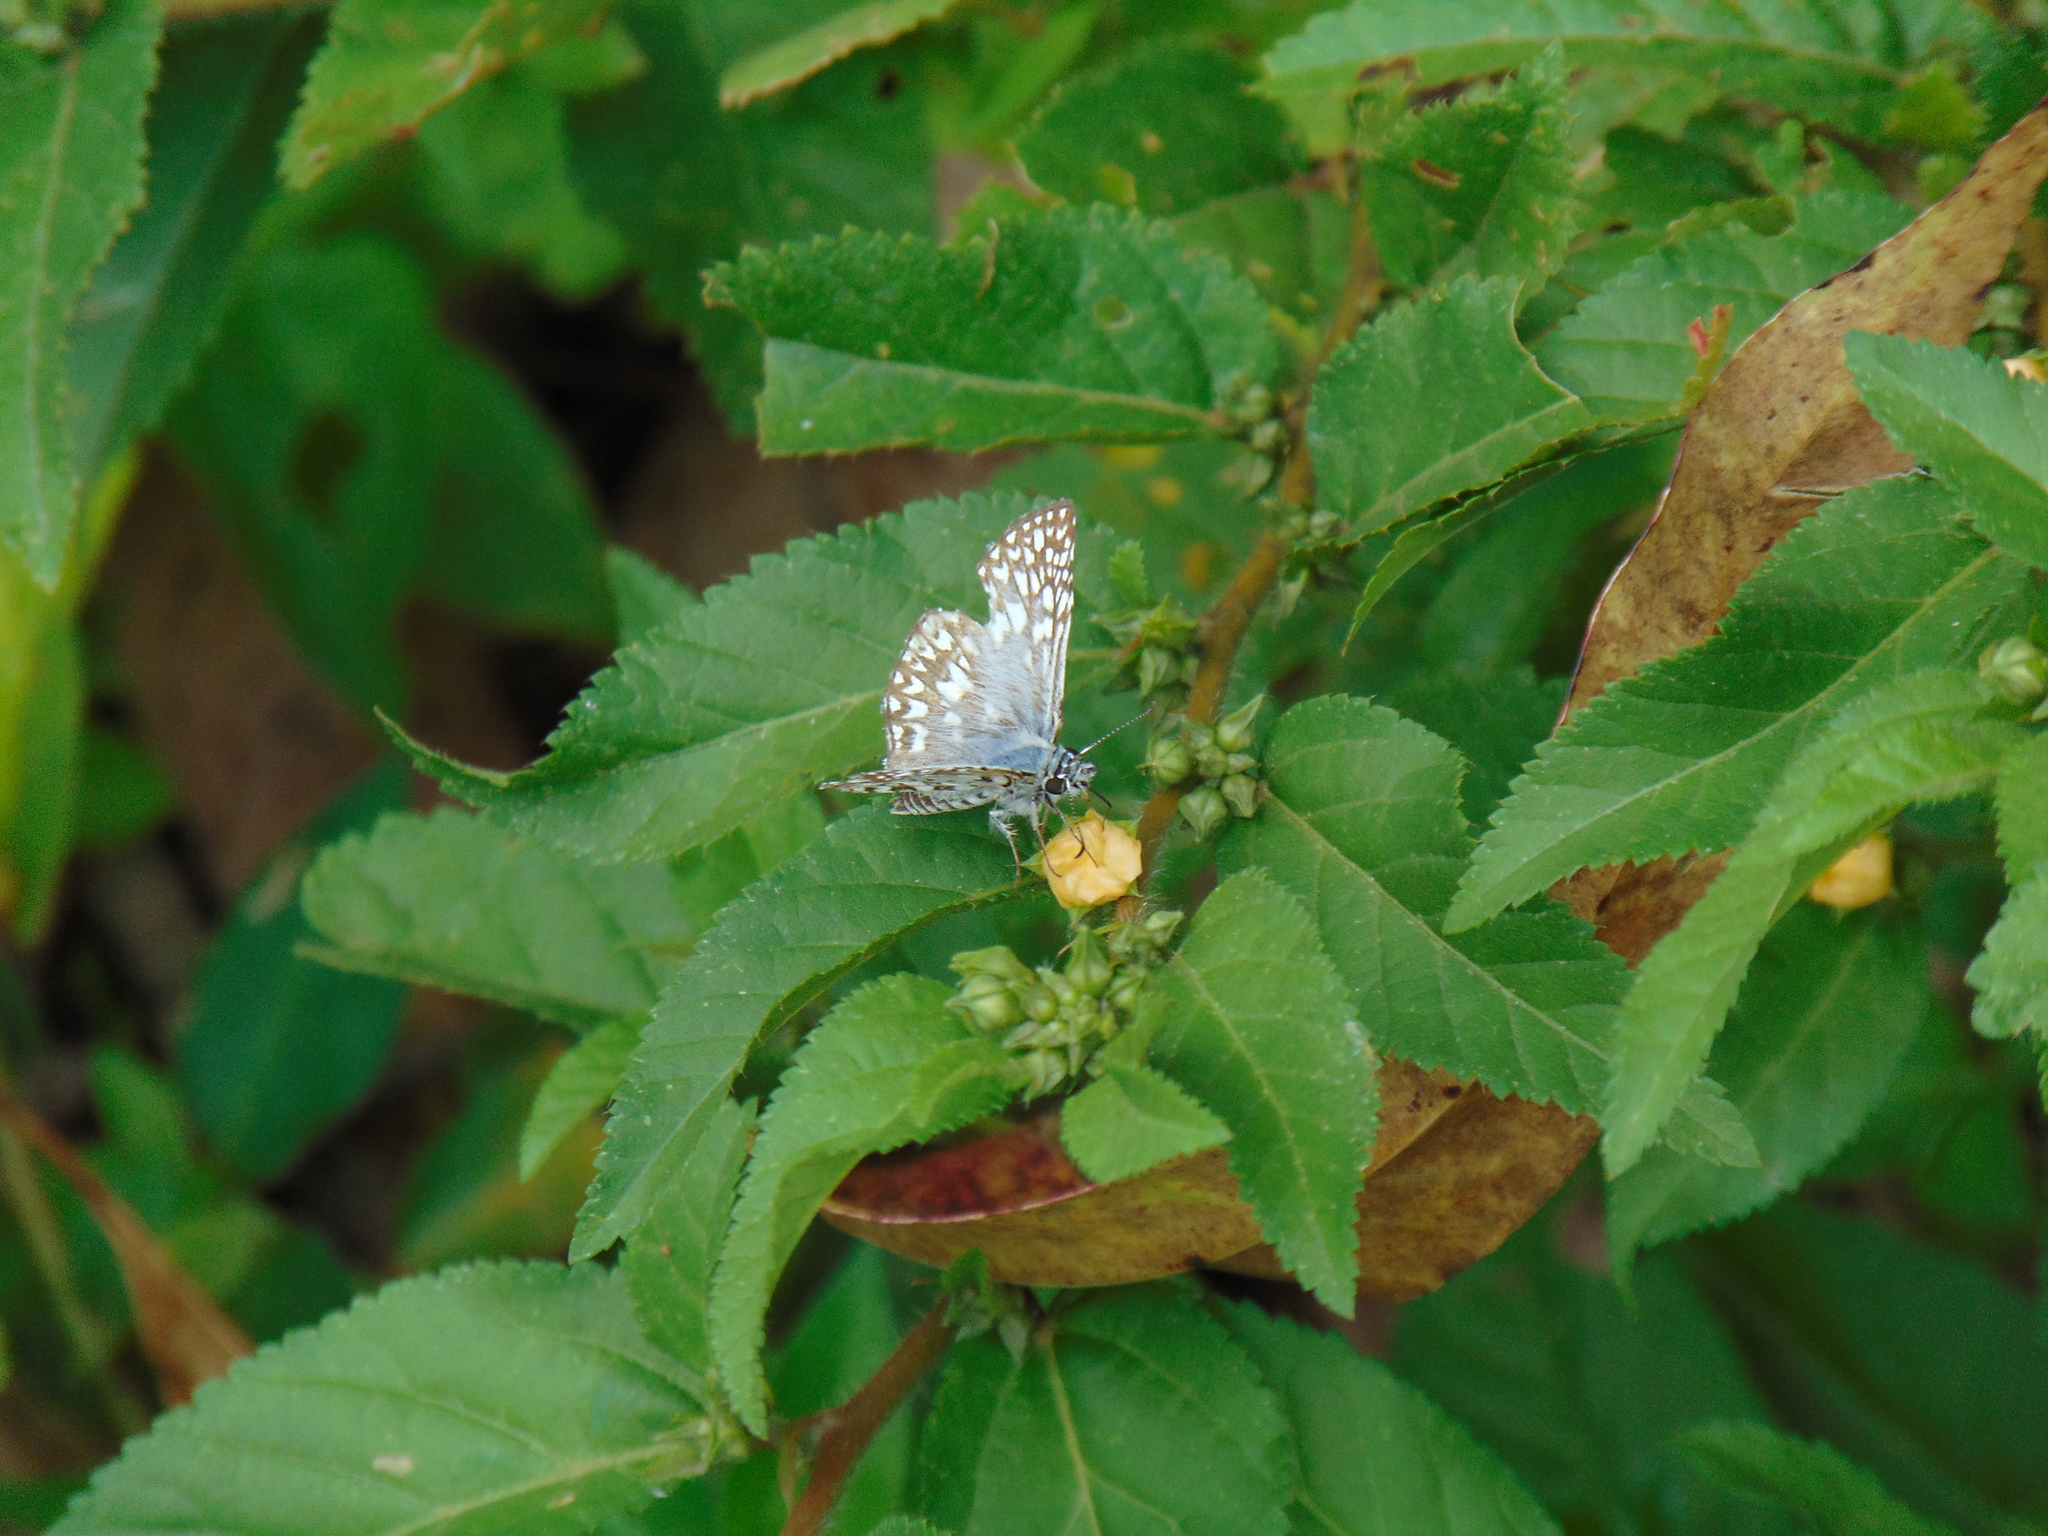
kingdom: Animalia
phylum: Arthropoda
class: Insecta
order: Lepidoptera
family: Hesperiidae
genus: Pyrgus
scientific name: Pyrgus oileus
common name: Tropical checkered-skipper
